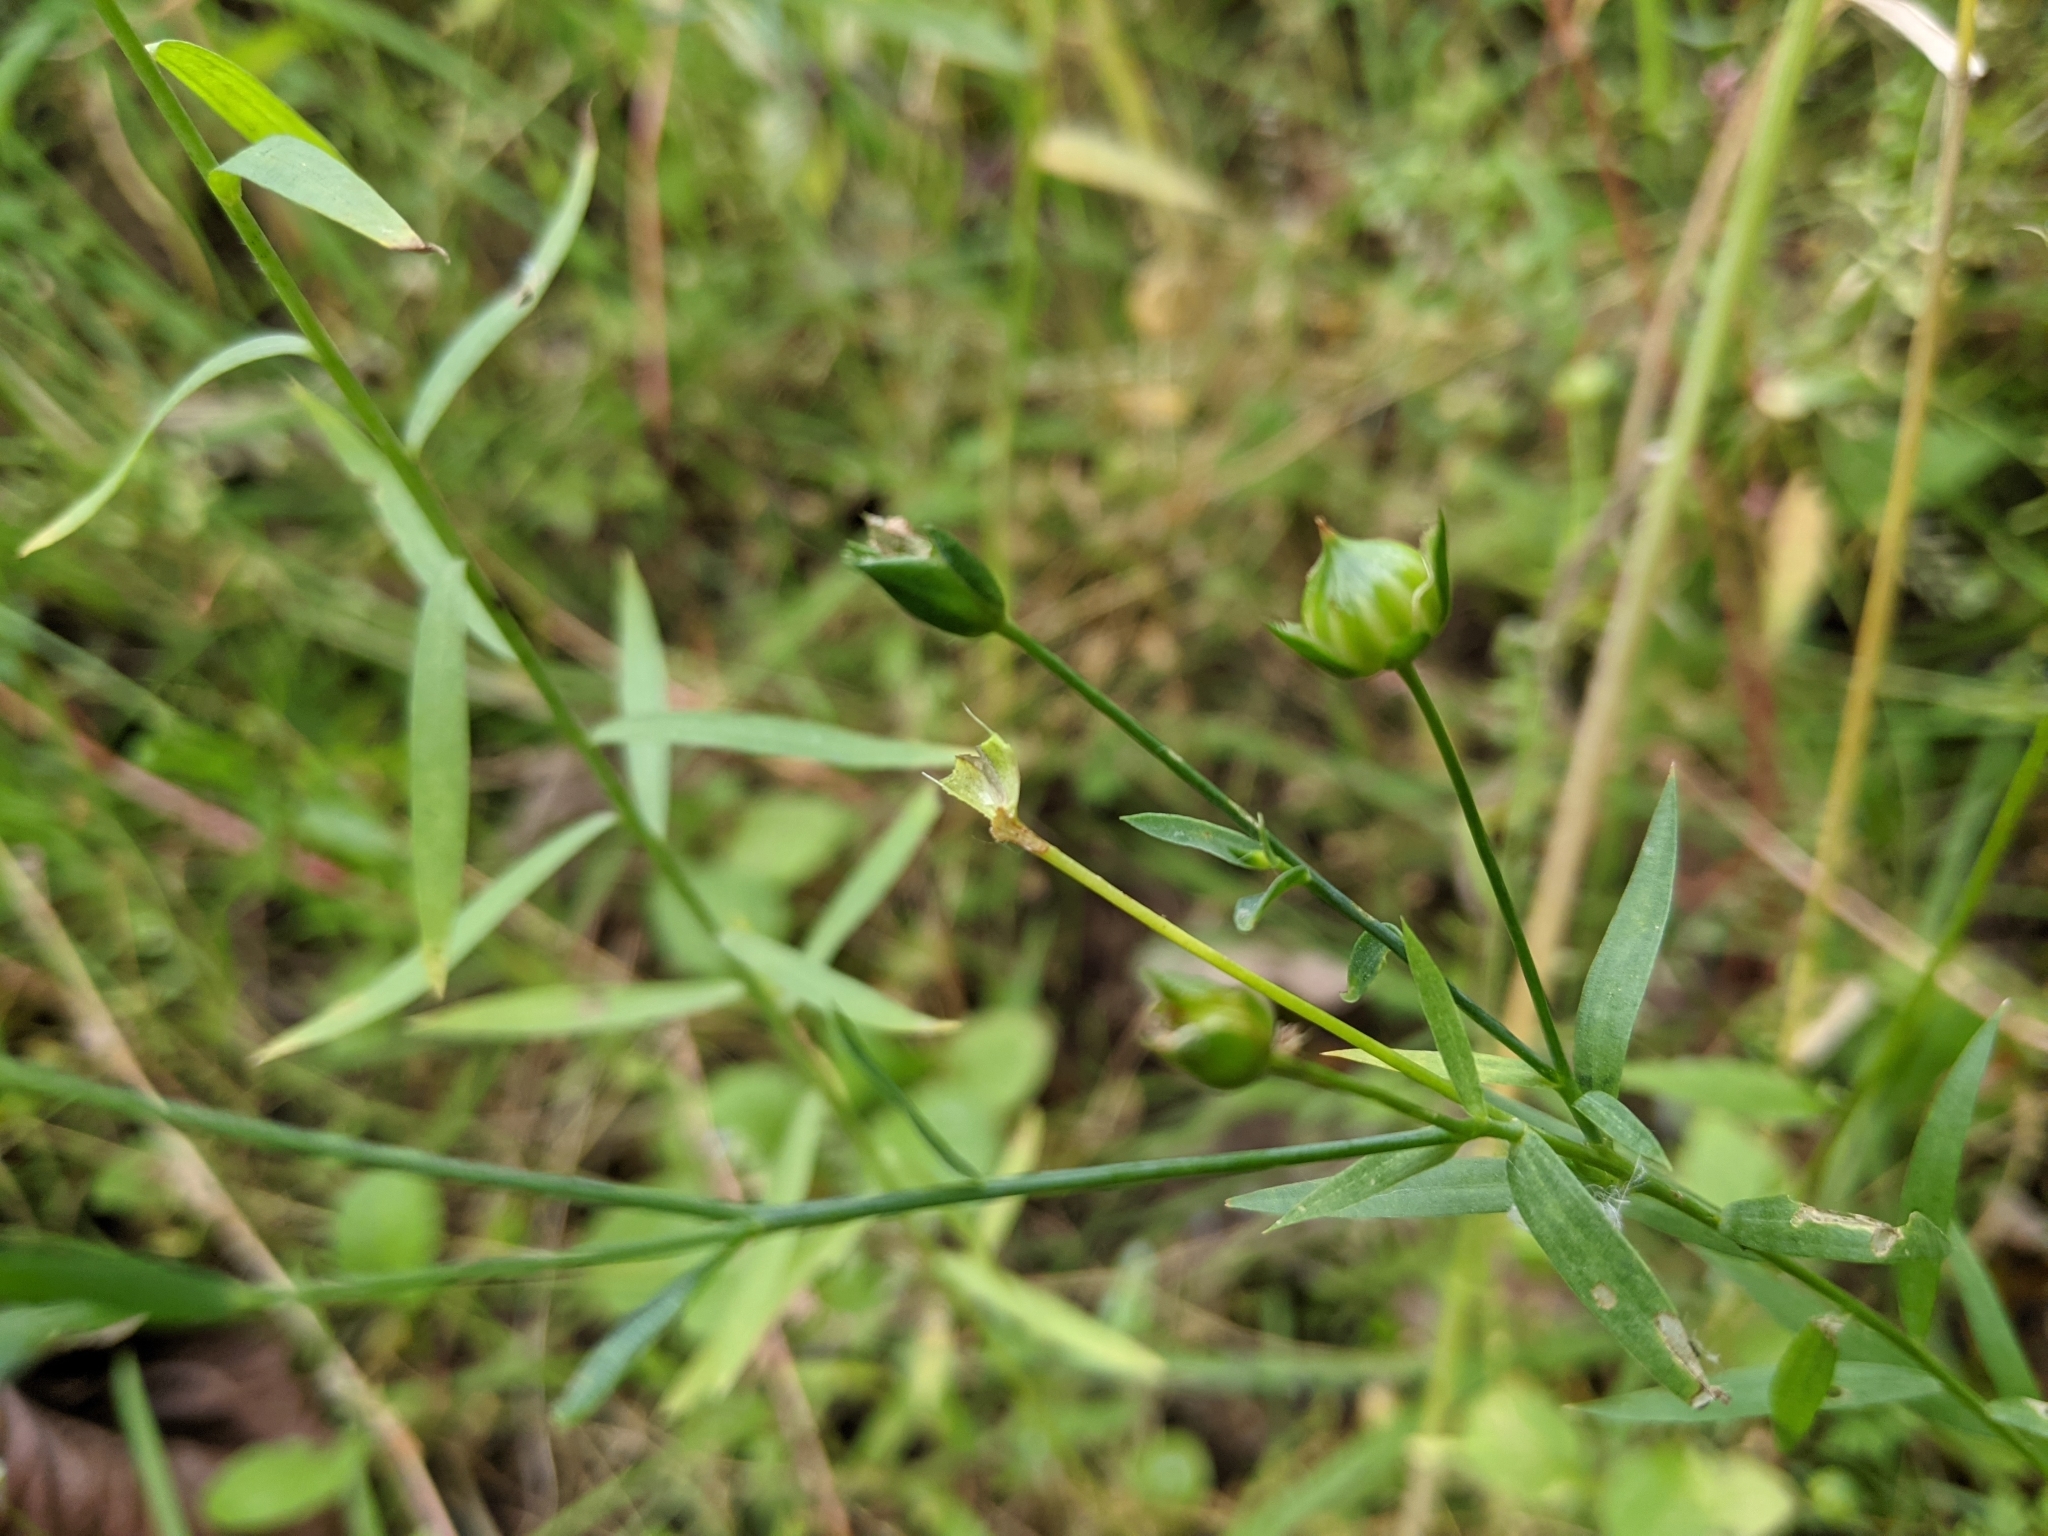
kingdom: Plantae
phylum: Tracheophyta
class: Magnoliopsida
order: Malpighiales
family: Linaceae
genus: Linum
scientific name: Linum usitatissimum
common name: Flax
